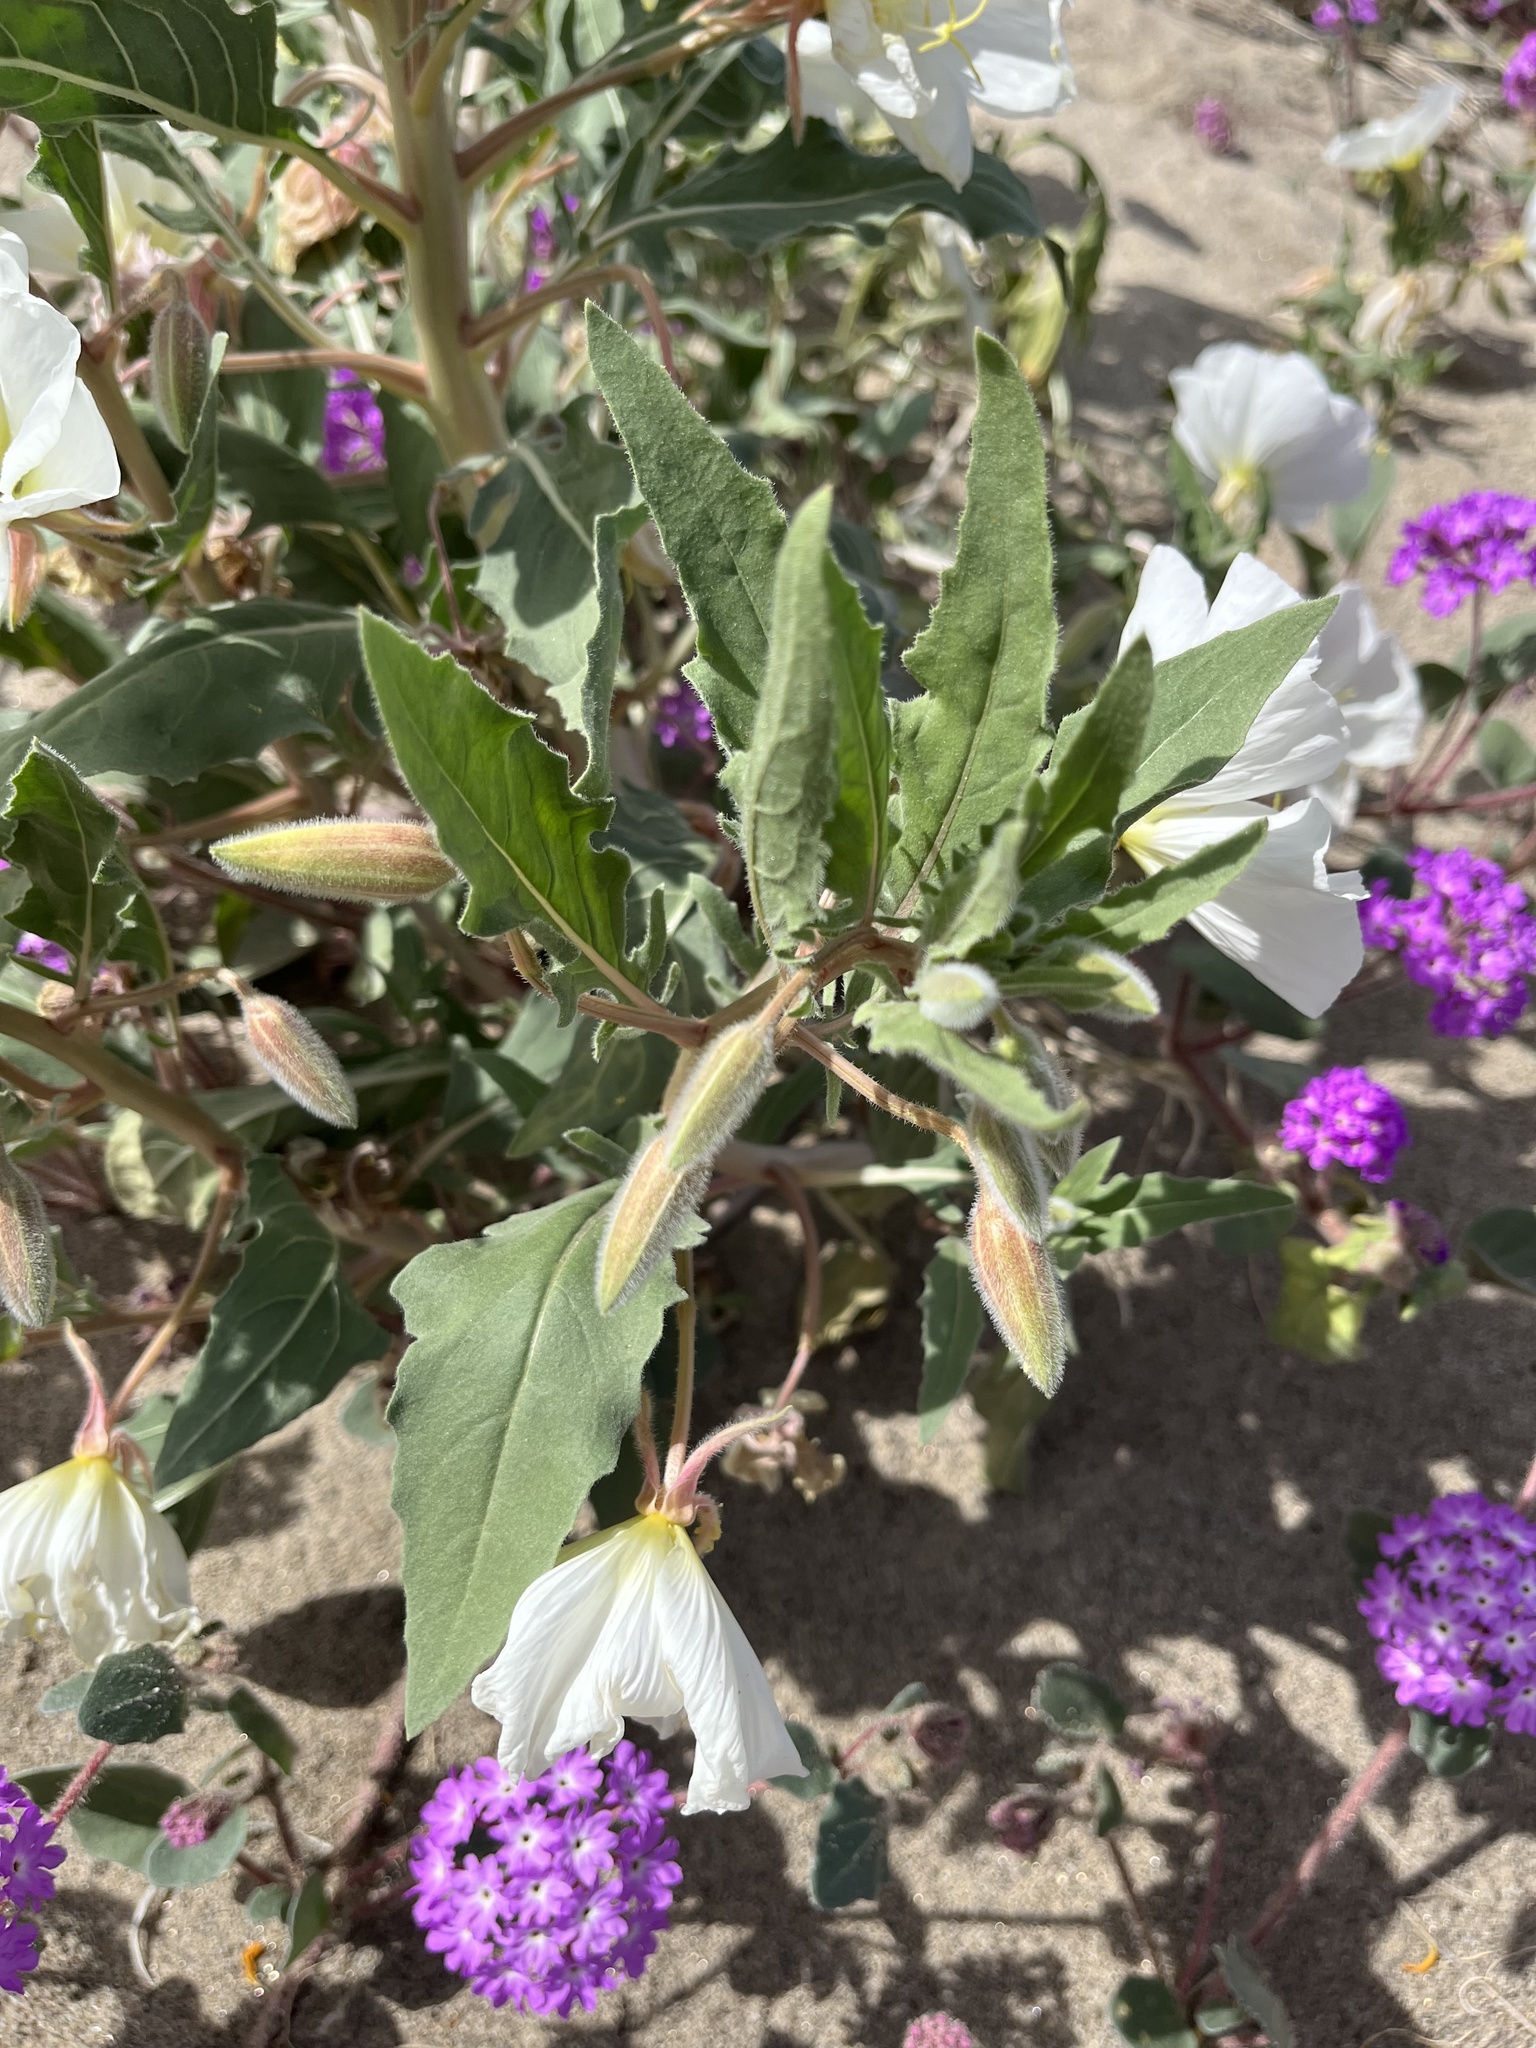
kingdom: Plantae
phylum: Tracheophyta
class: Magnoliopsida
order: Myrtales
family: Onagraceae
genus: Oenothera
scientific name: Oenothera deltoides
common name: Basket evening-primrose
